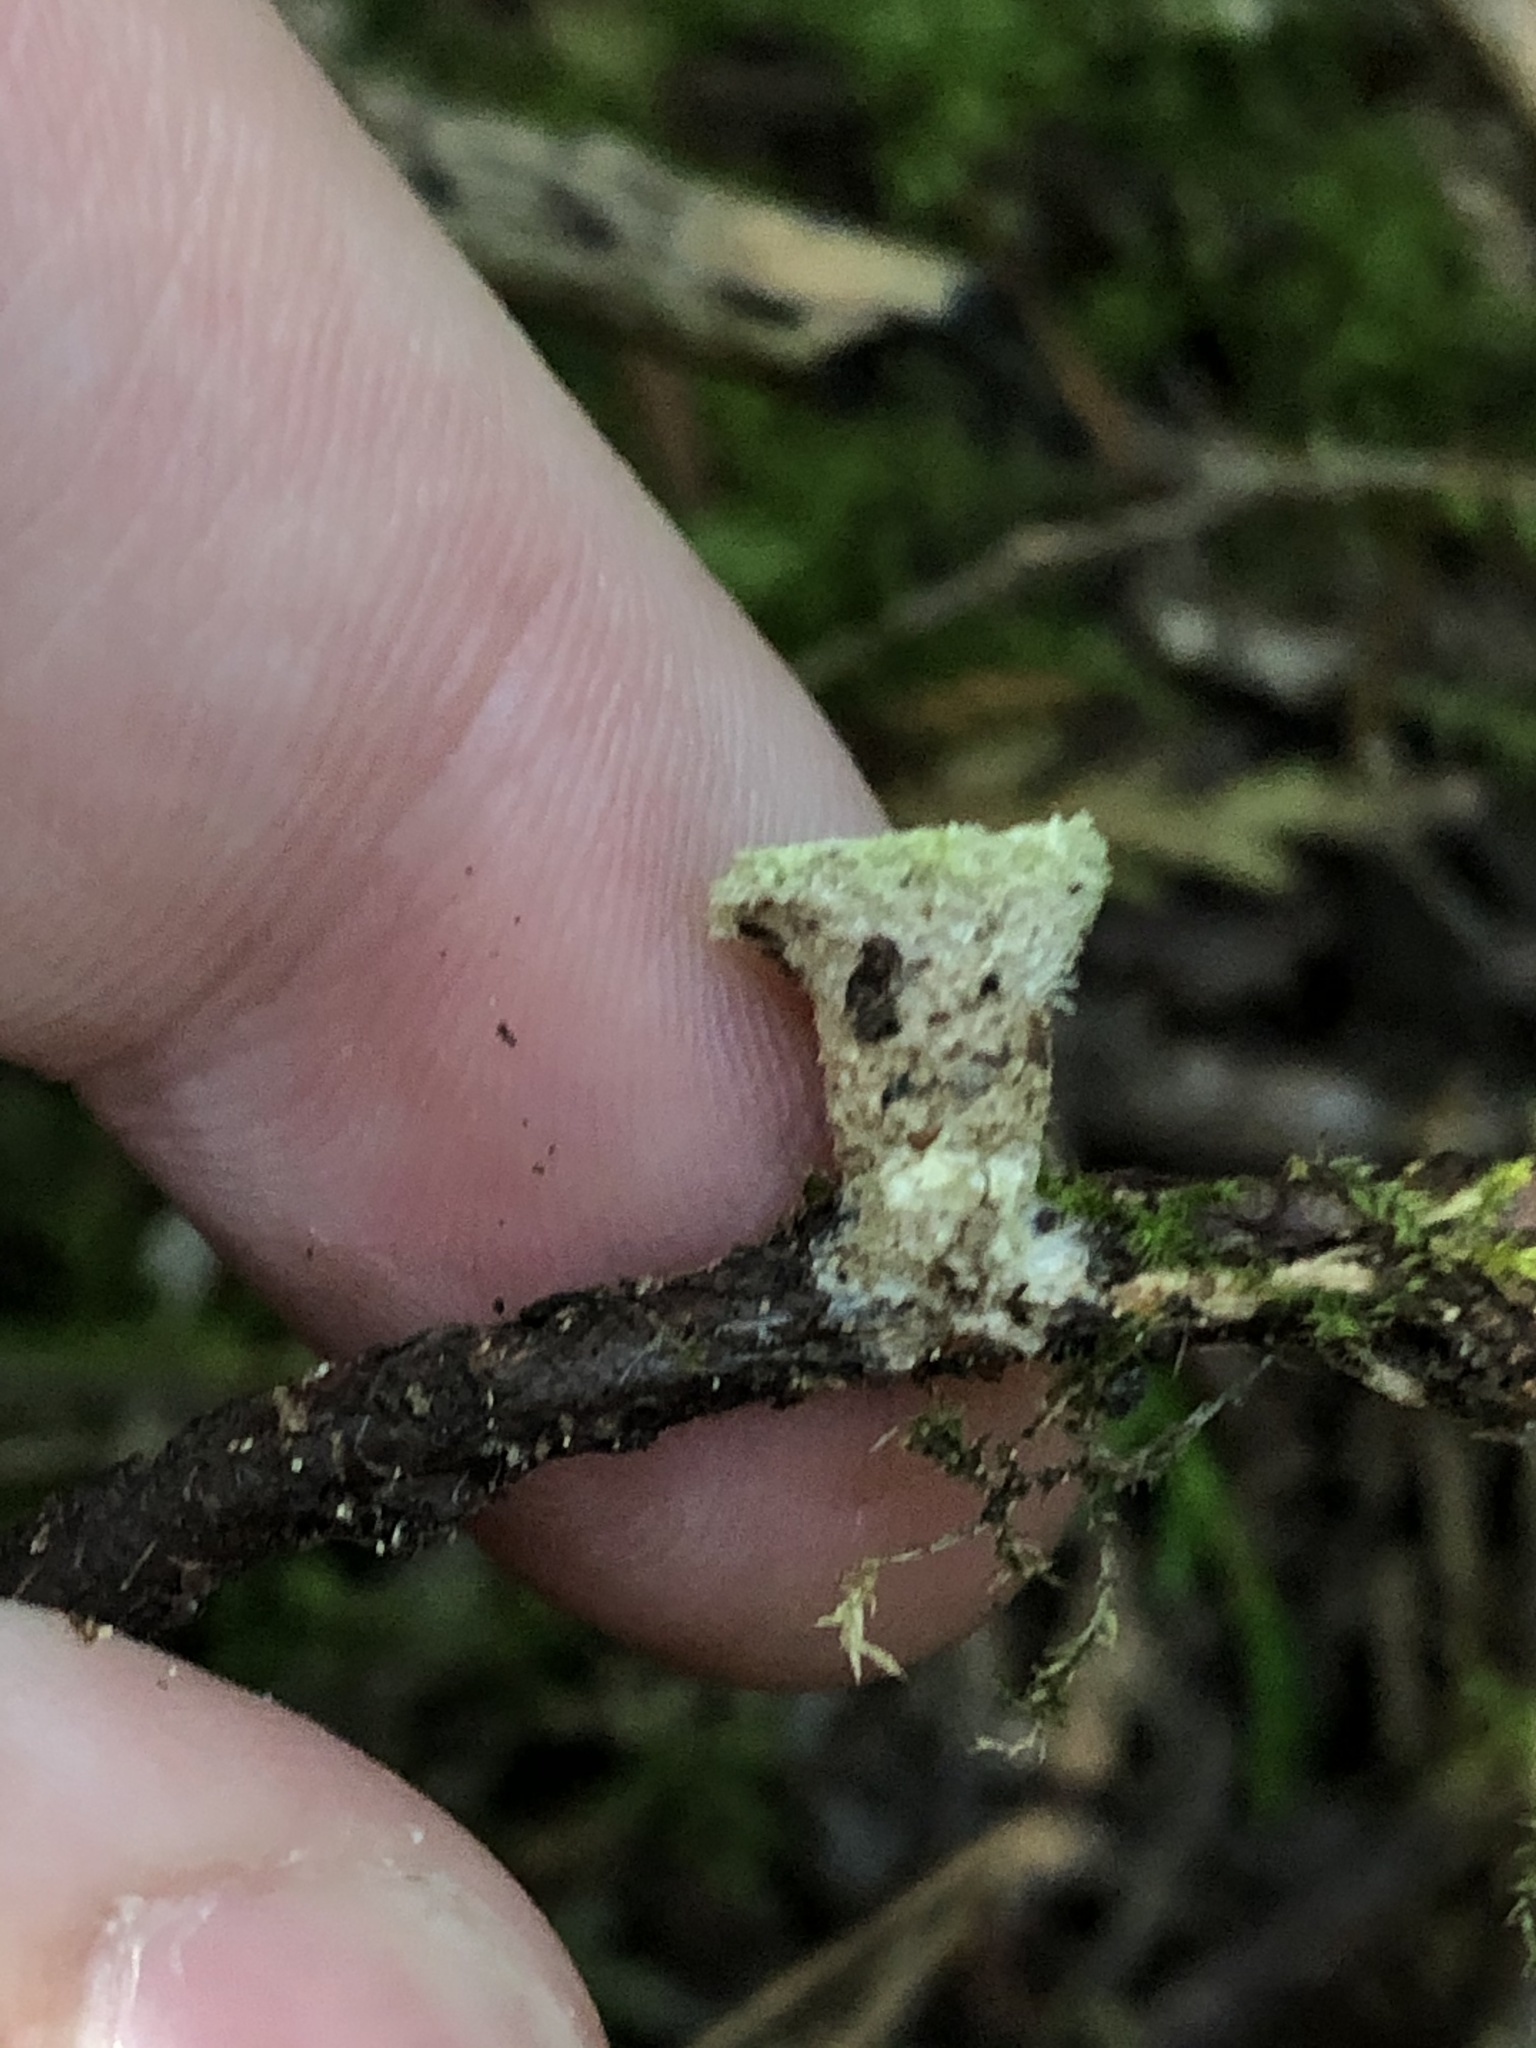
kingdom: Fungi
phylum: Basidiomycota
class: Agaricomycetes
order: Agaricales
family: Agaricaceae
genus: Nidula
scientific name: Nidula niveotomentosa
